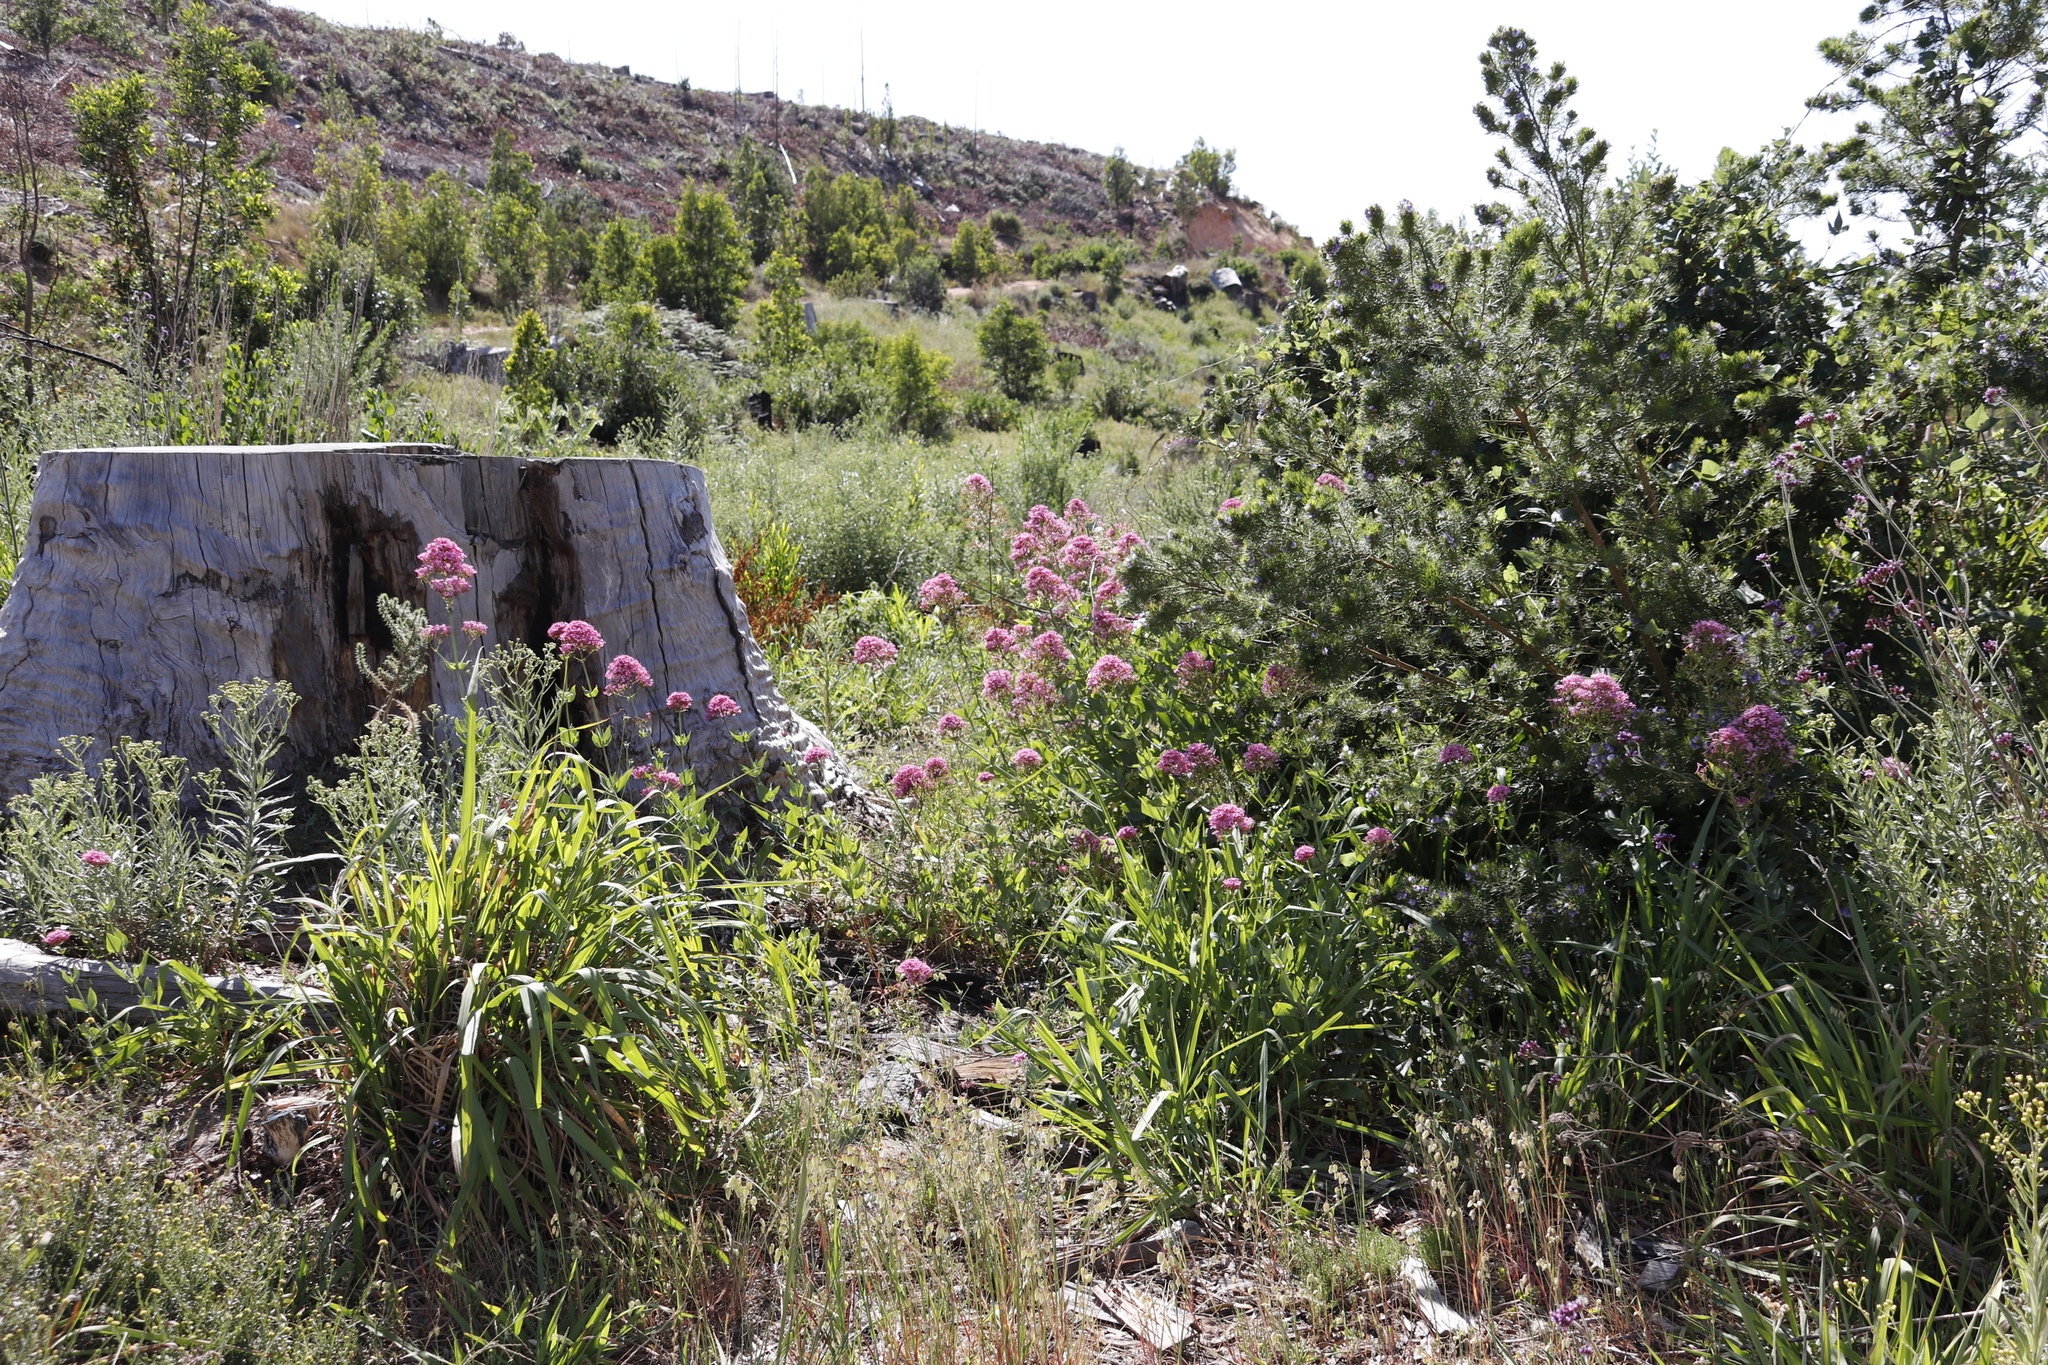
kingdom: Plantae
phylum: Tracheophyta
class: Magnoliopsida
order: Dipsacales
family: Caprifoliaceae
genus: Centranthus
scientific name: Centranthus ruber
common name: Red valerian
